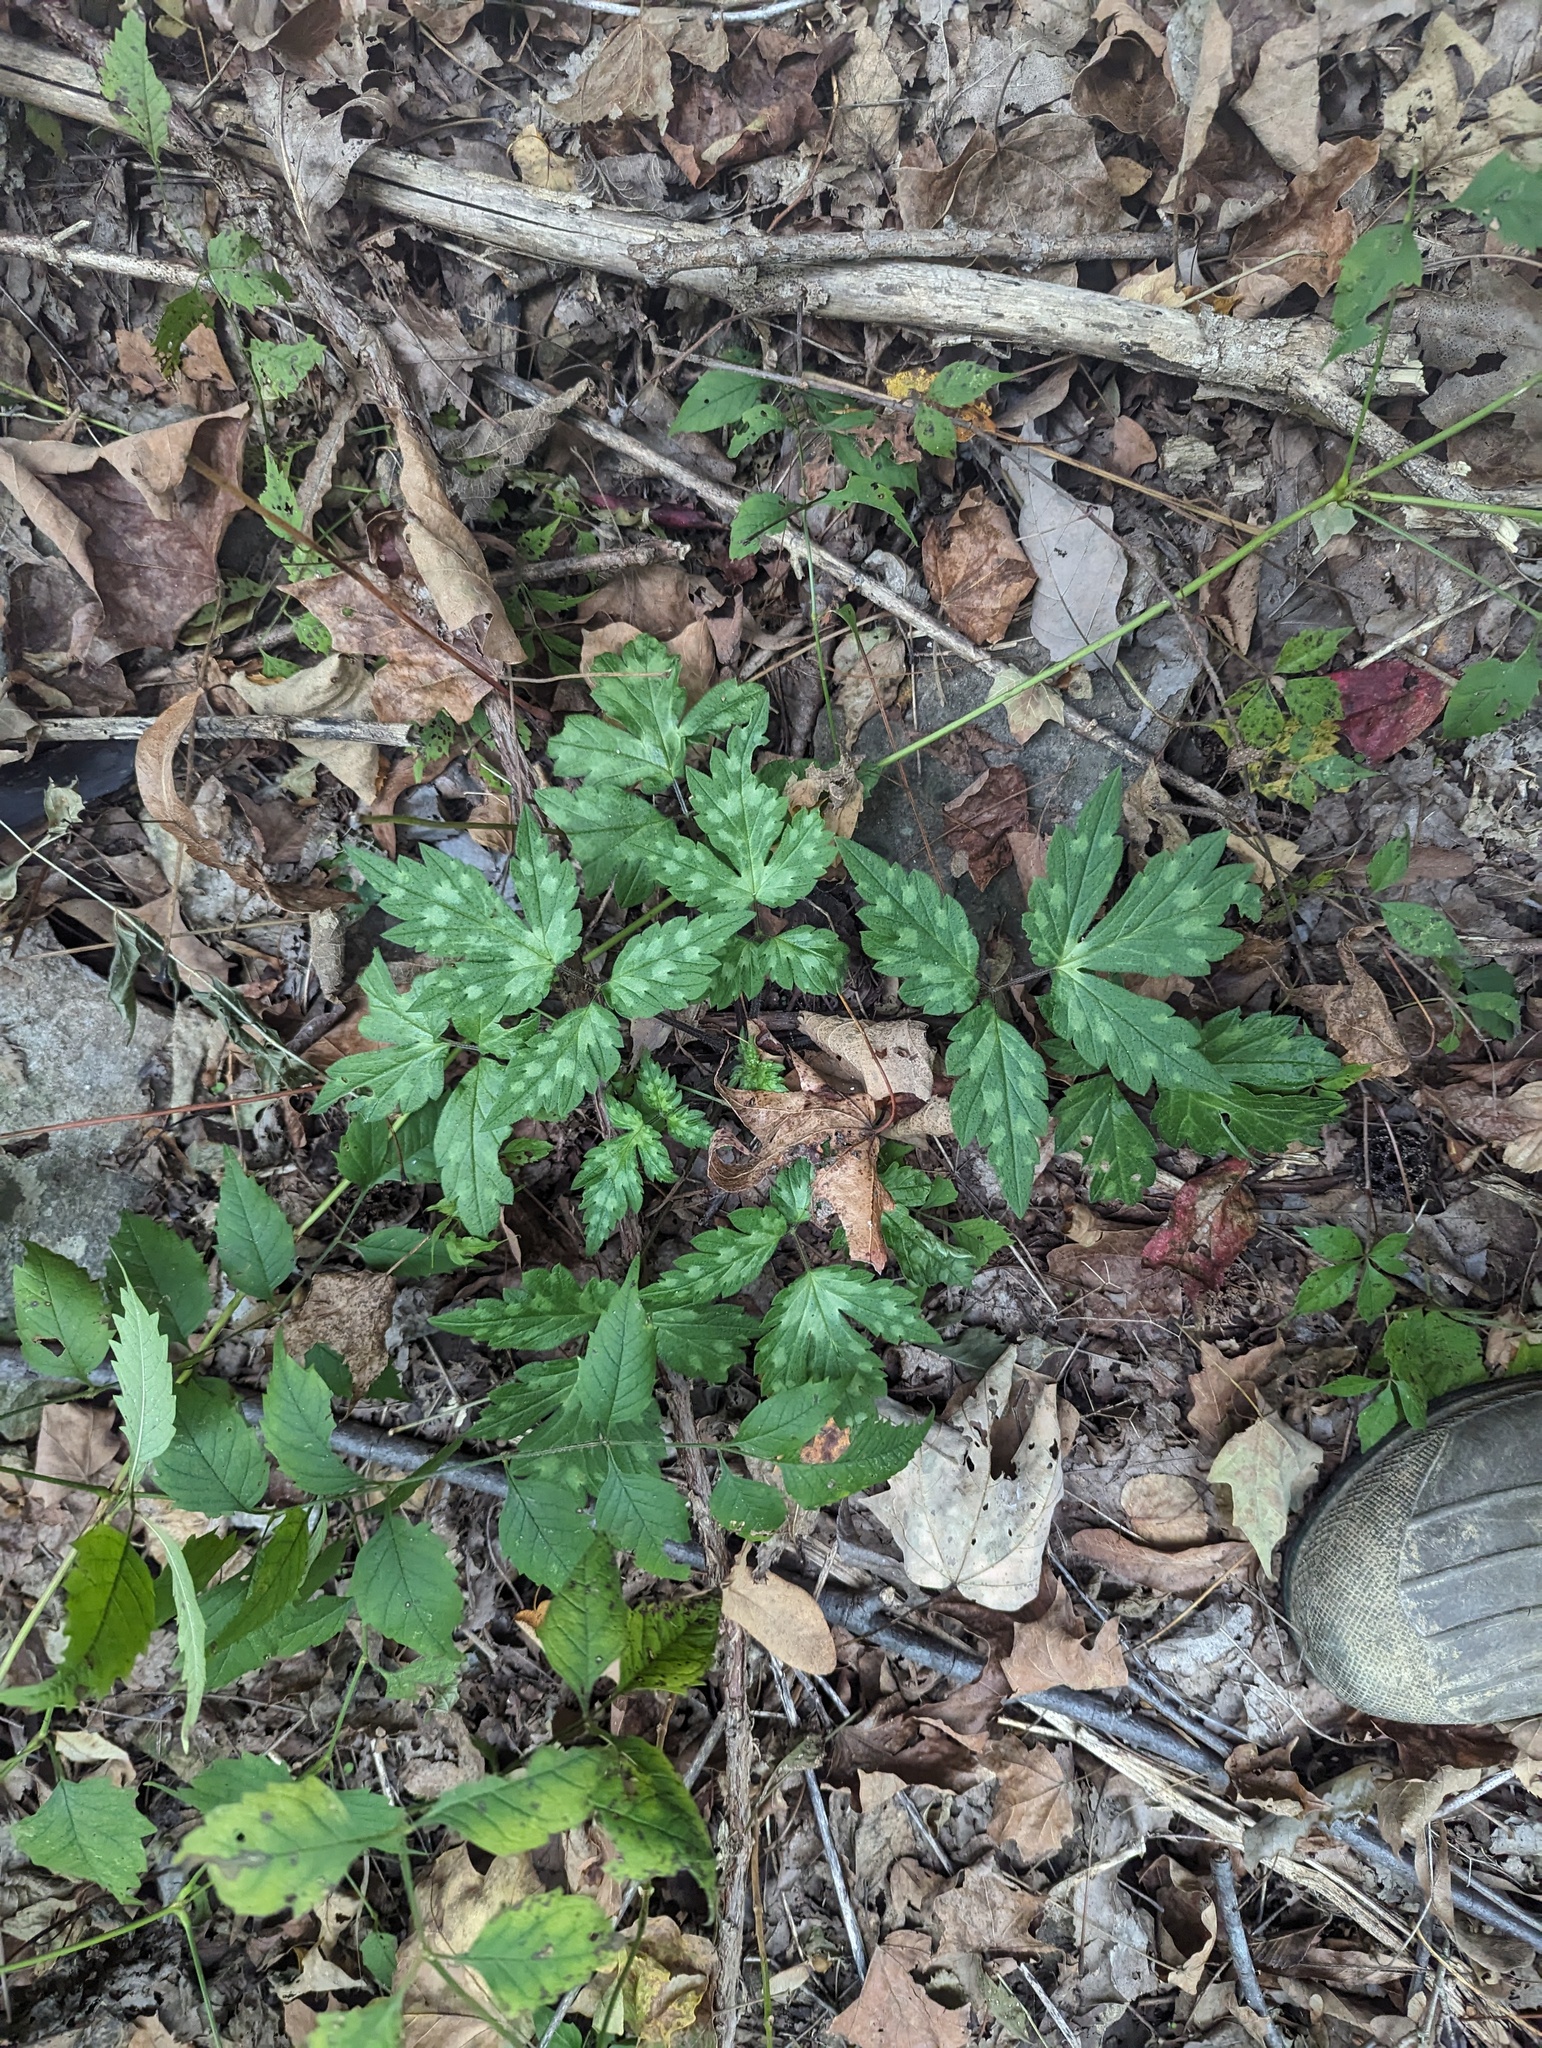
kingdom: Plantae
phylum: Tracheophyta
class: Magnoliopsida
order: Boraginales
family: Hydrophyllaceae
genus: Phacelia
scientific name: Phacelia bipinnatifida
